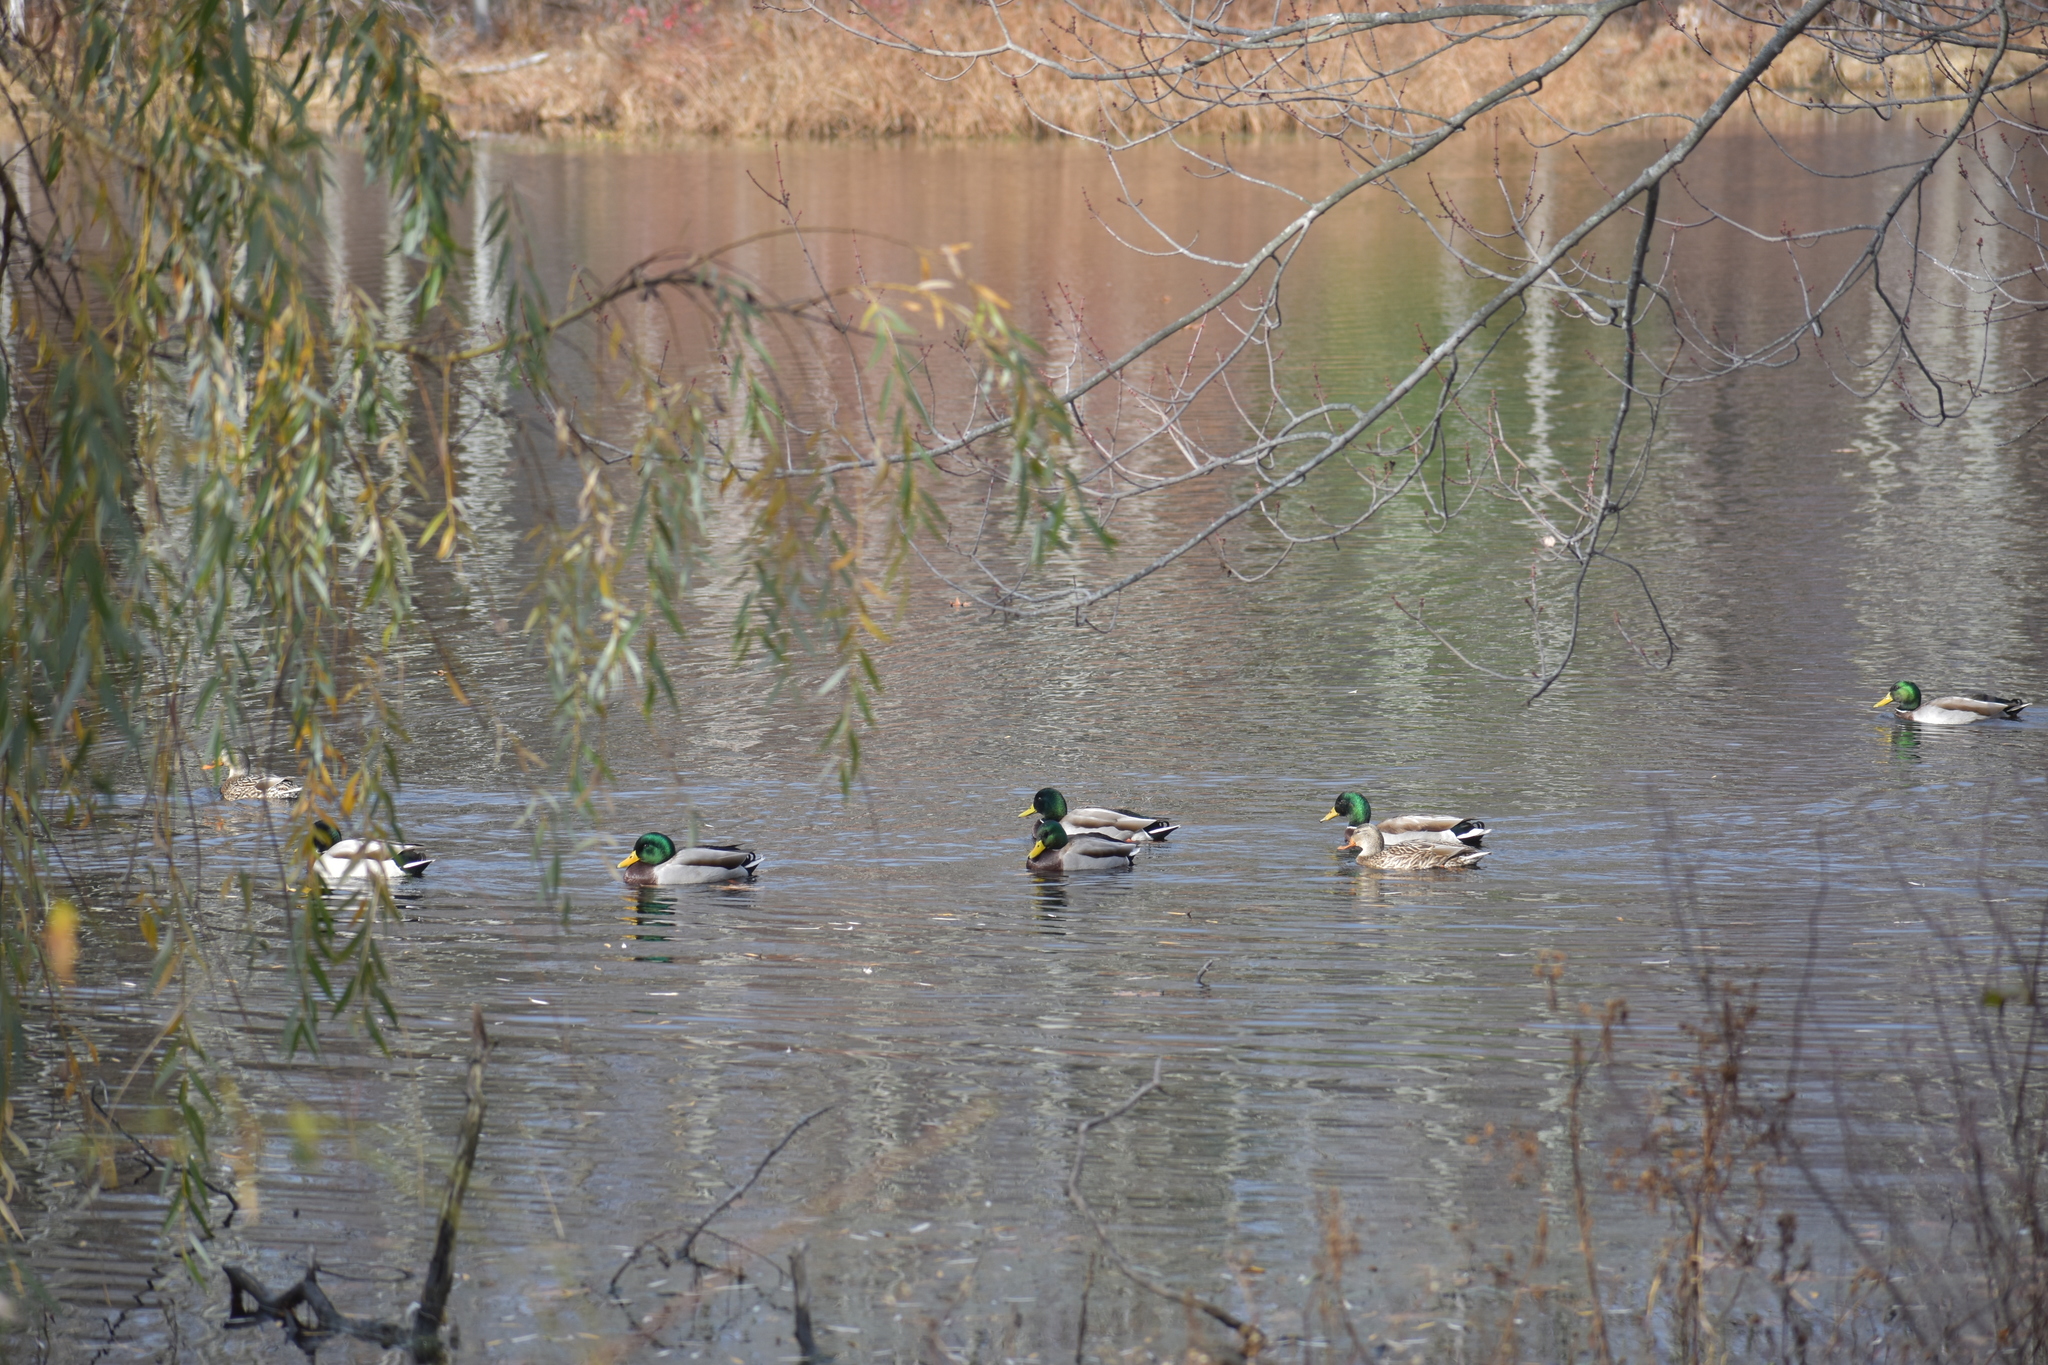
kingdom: Animalia
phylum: Chordata
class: Aves
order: Anseriformes
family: Anatidae
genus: Anas
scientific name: Anas platyrhynchos
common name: Mallard
